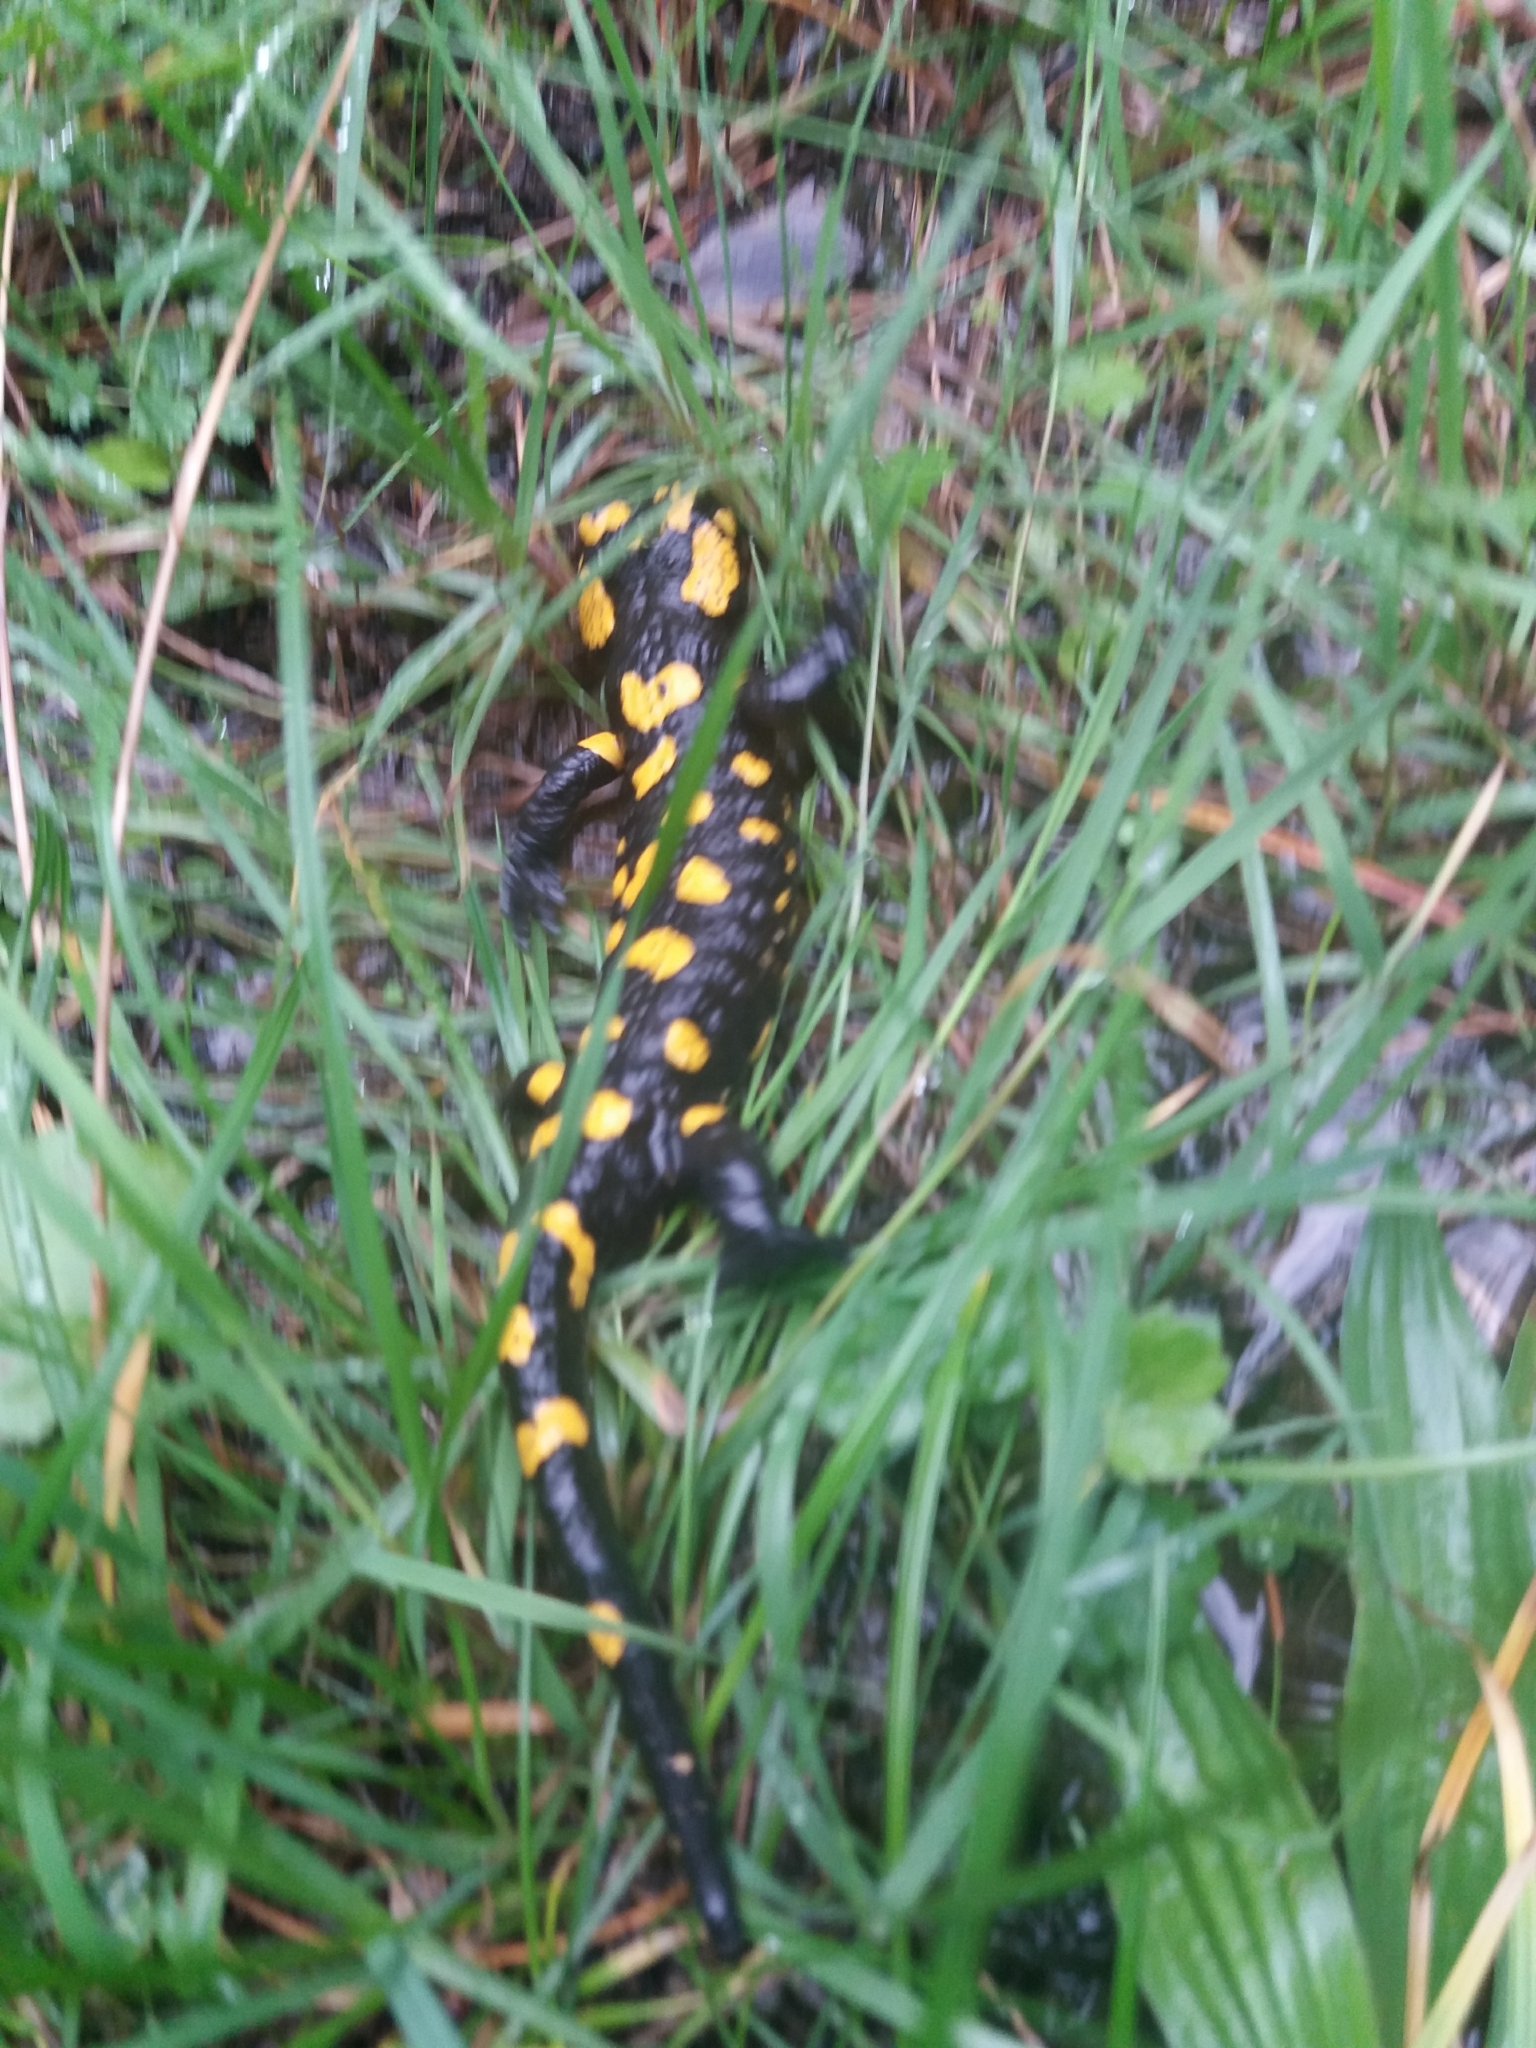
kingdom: Animalia
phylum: Chordata
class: Amphibia
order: Caudata
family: Salamandridae
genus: Salamandra
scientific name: Salamandra salamandra
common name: Fire salamander
